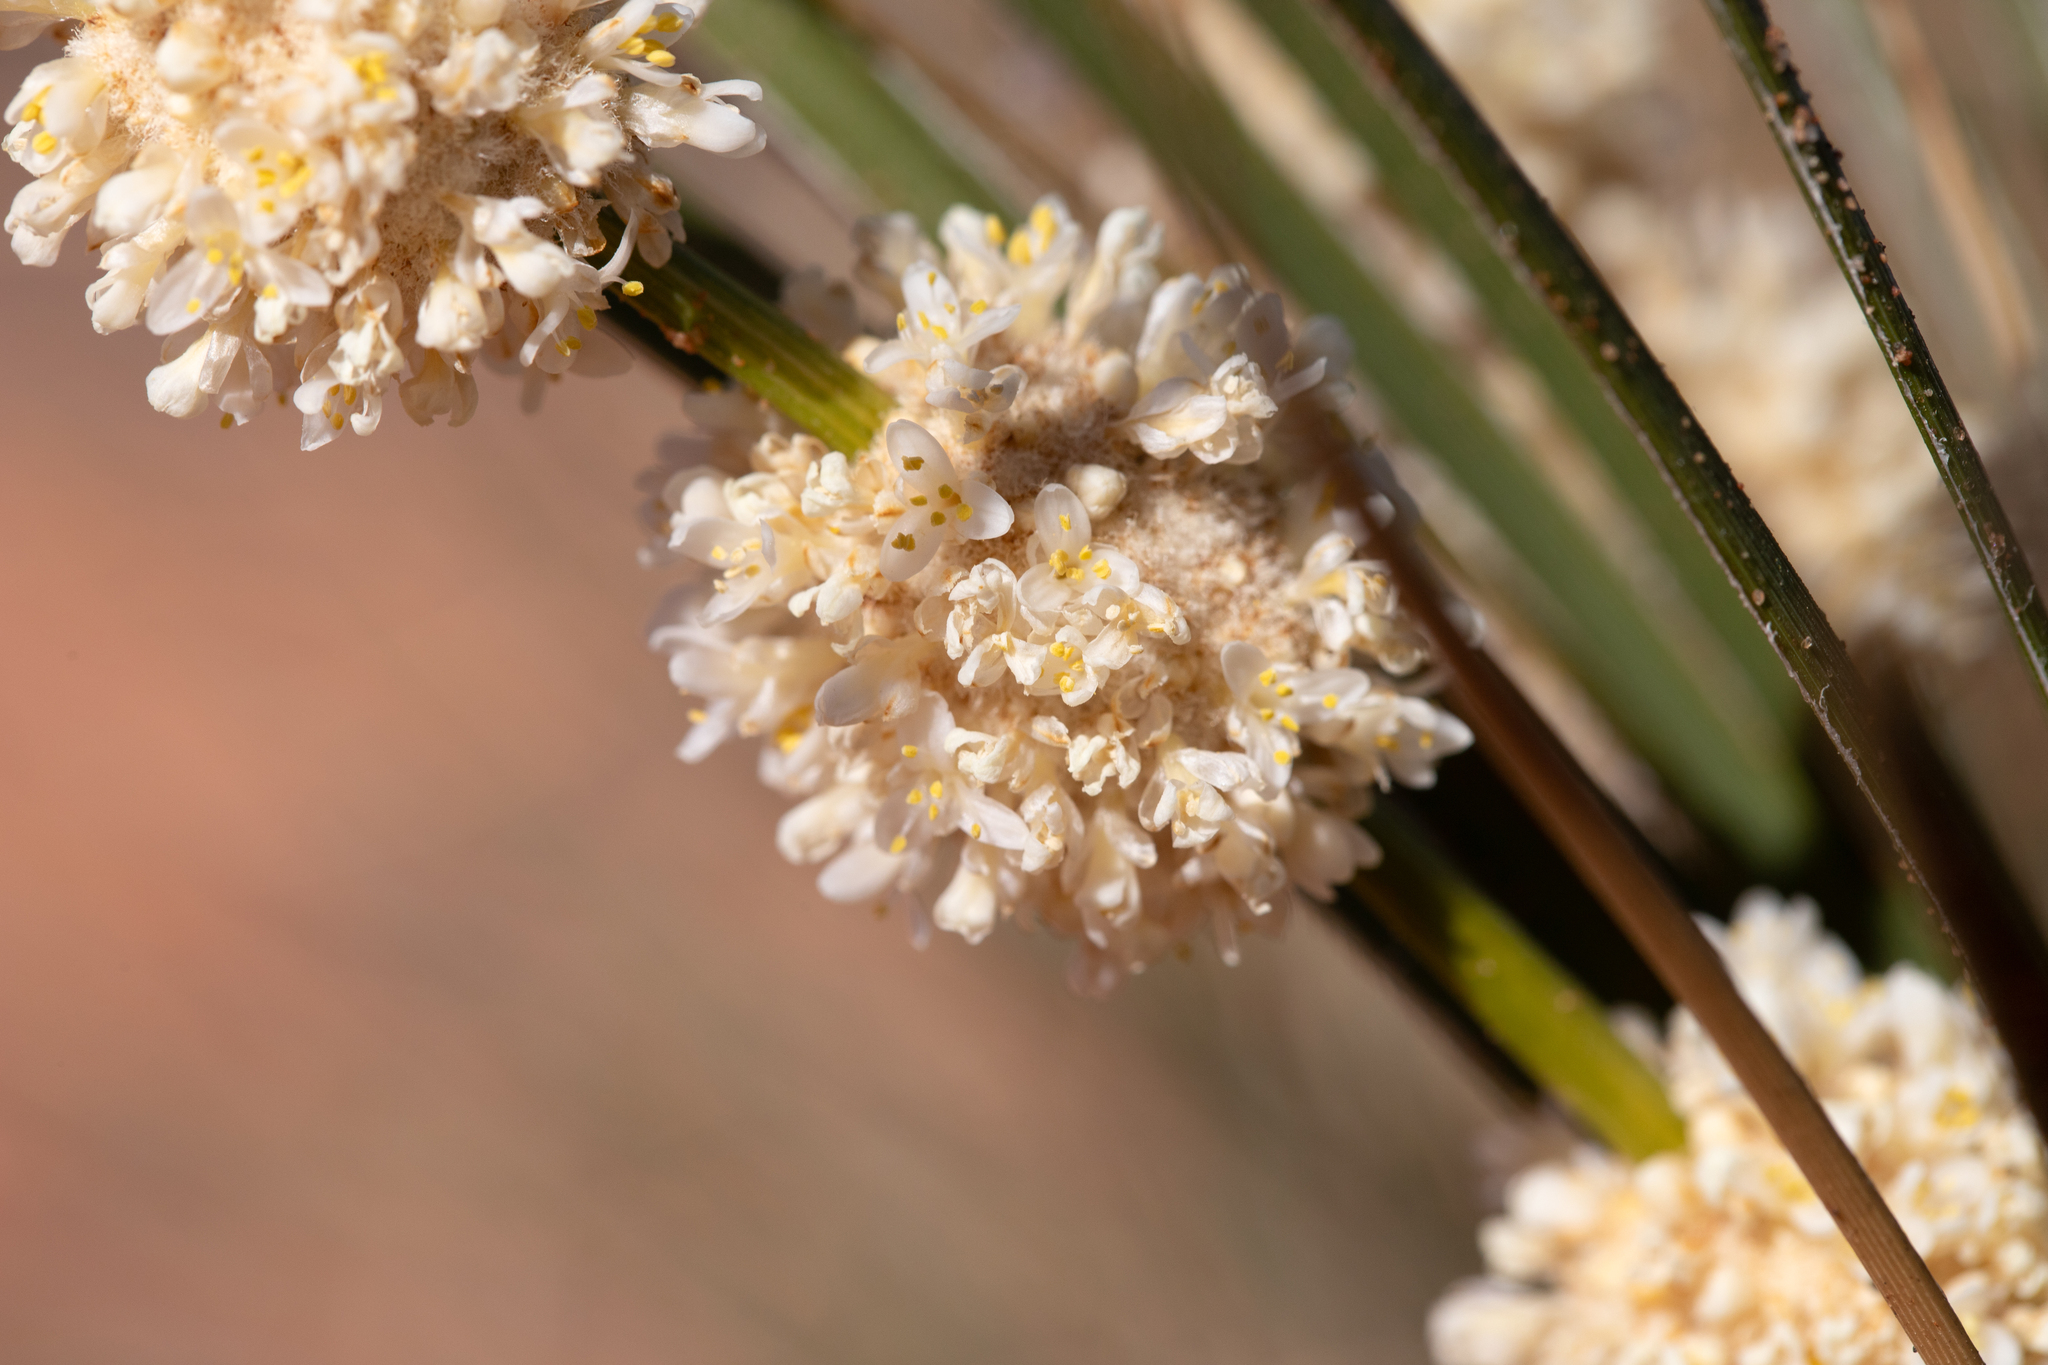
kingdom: Plantae
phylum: Tracheophyta
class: Liliopsida
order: Asparagales
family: Asparagaceae
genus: Lomandra
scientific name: Lomandra leucocephala
